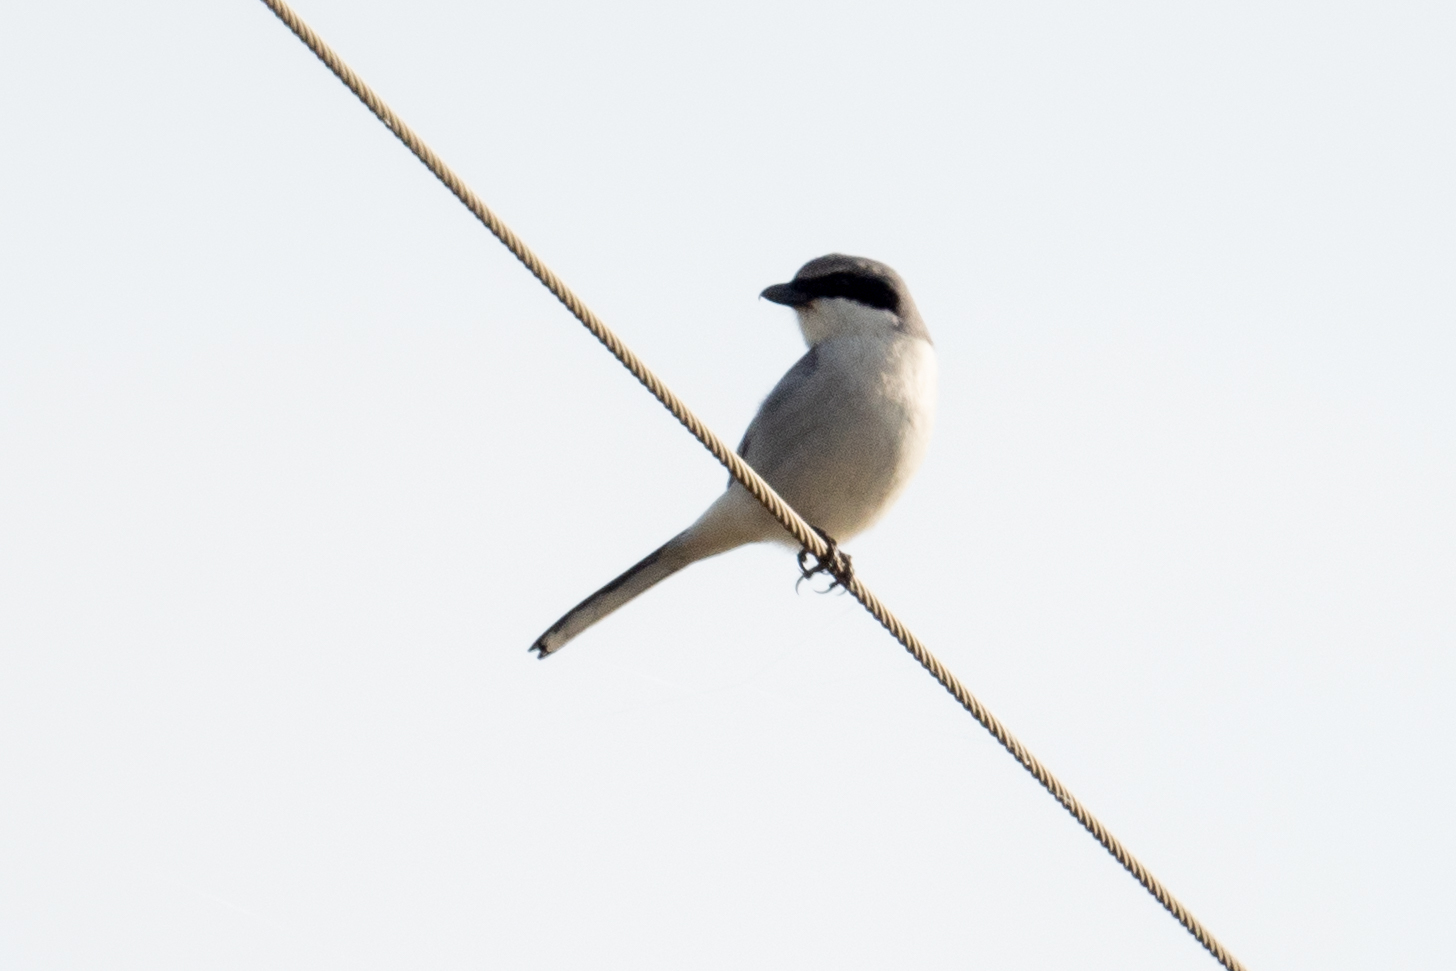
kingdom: Animalia
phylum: Chordata
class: Aves
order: Passeriformes
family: Laniidae
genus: Lanius
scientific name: Lanius ludovicianus
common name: Loggerhead shrike
